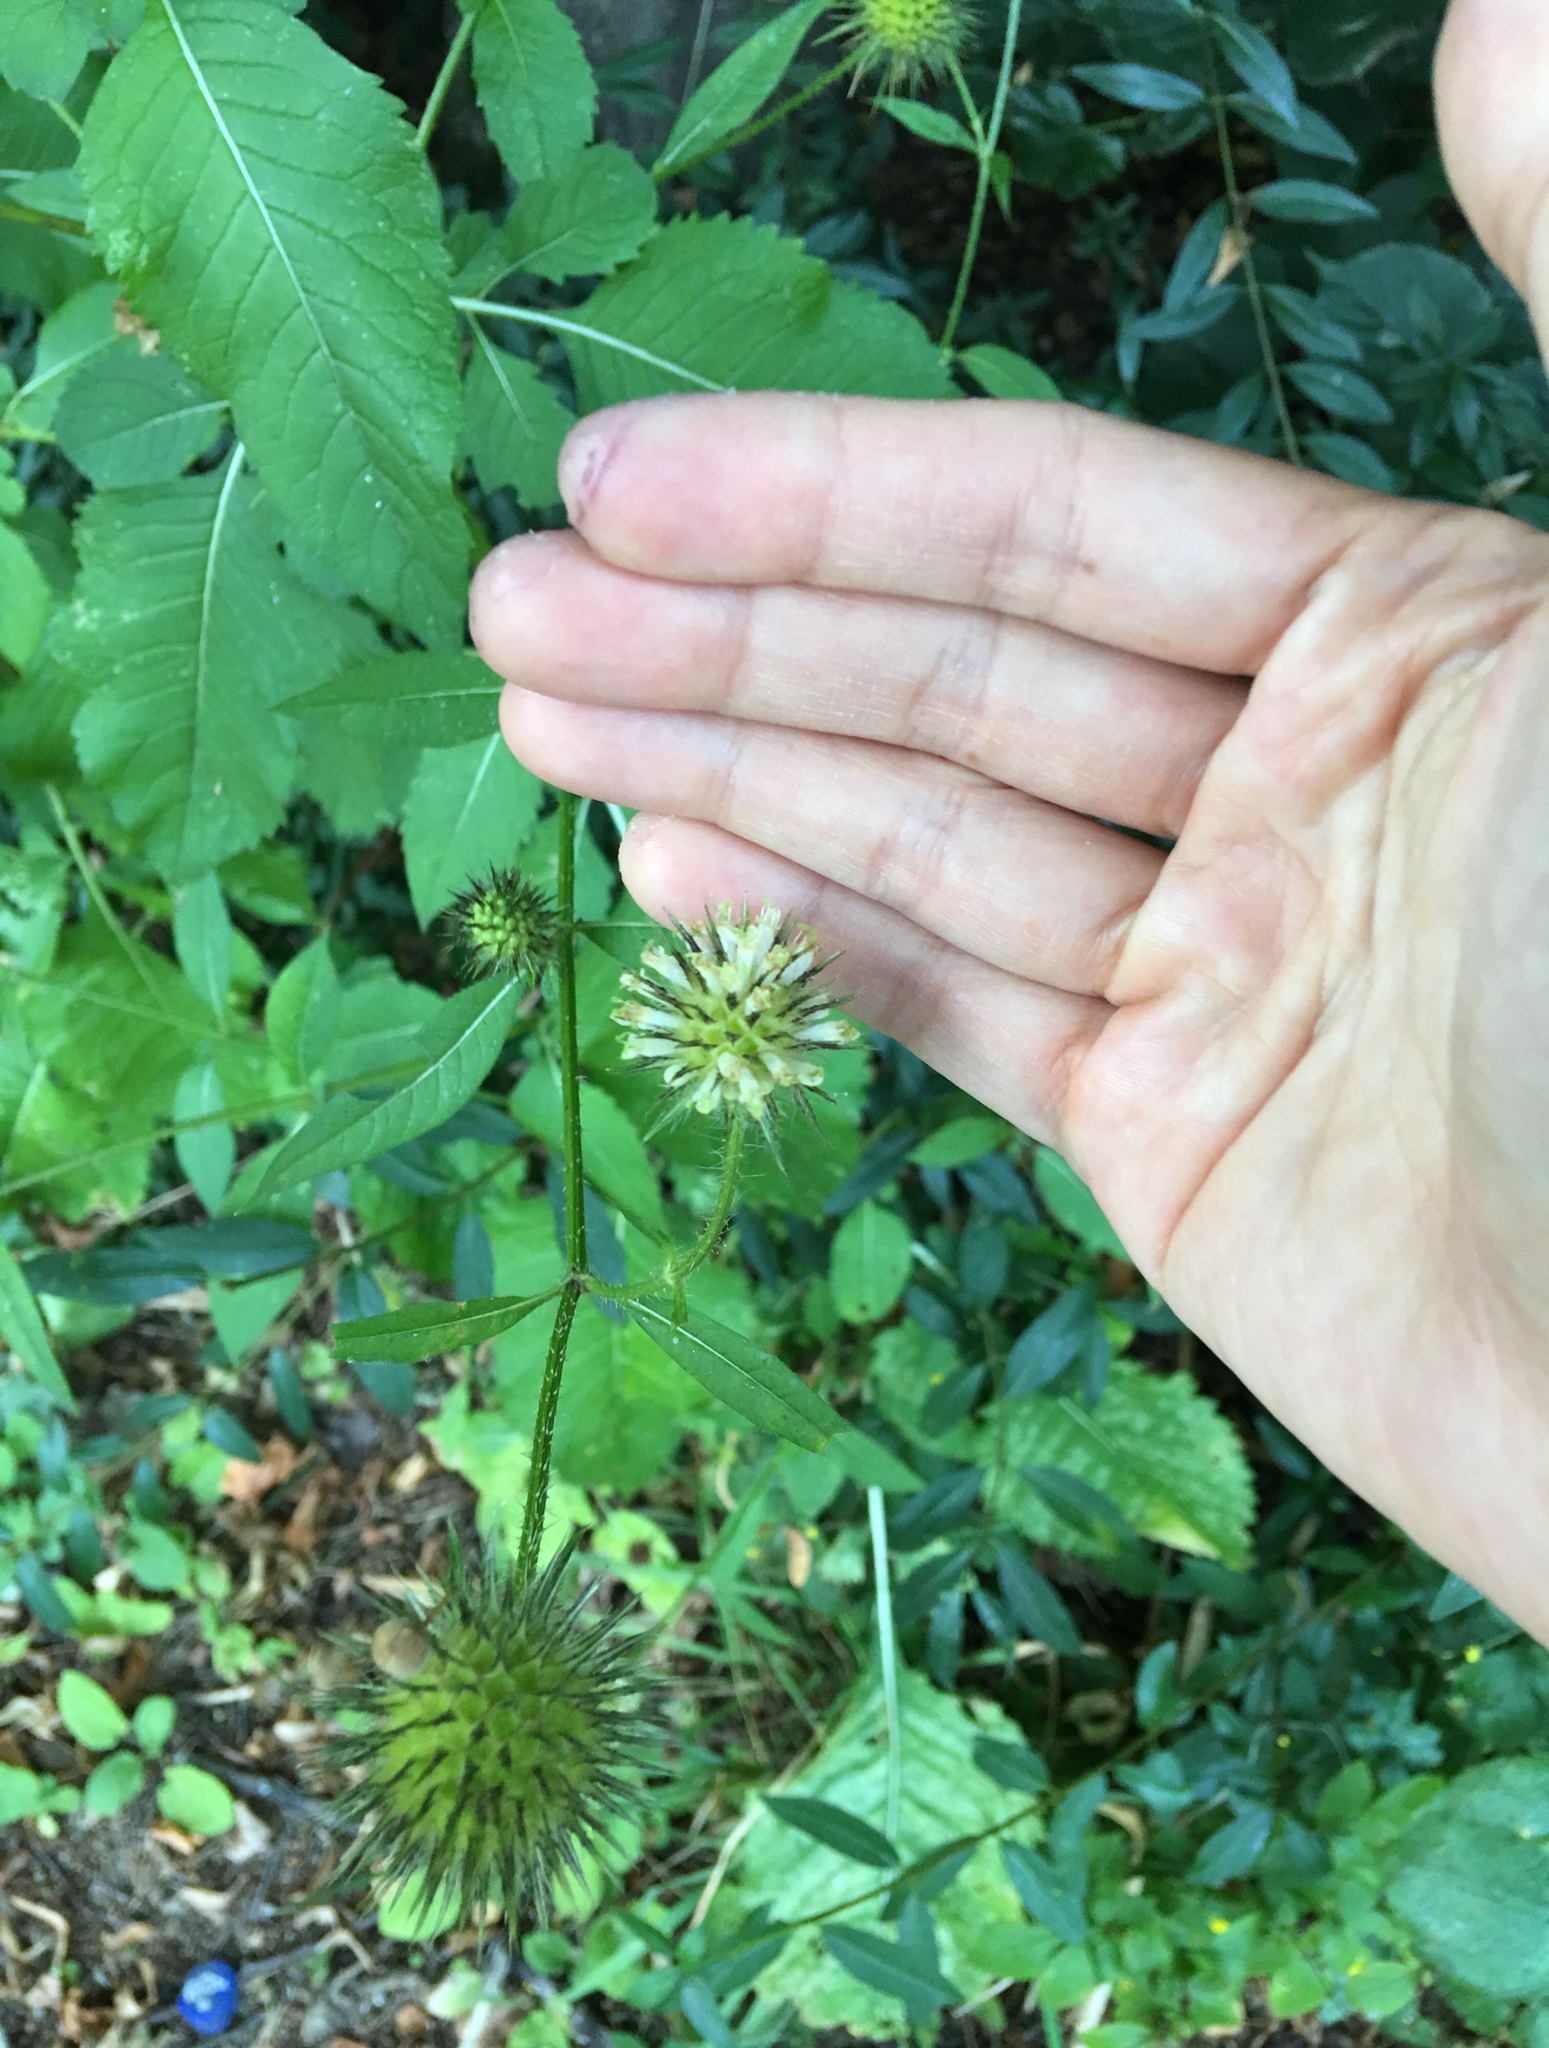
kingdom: Plantae
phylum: Tracheophyta
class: Magnoliopsida
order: Dipsacales
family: Caprifoliaceae
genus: Dipsacus
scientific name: Dipsacus strigosus
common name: Yellow-flowered teasel
